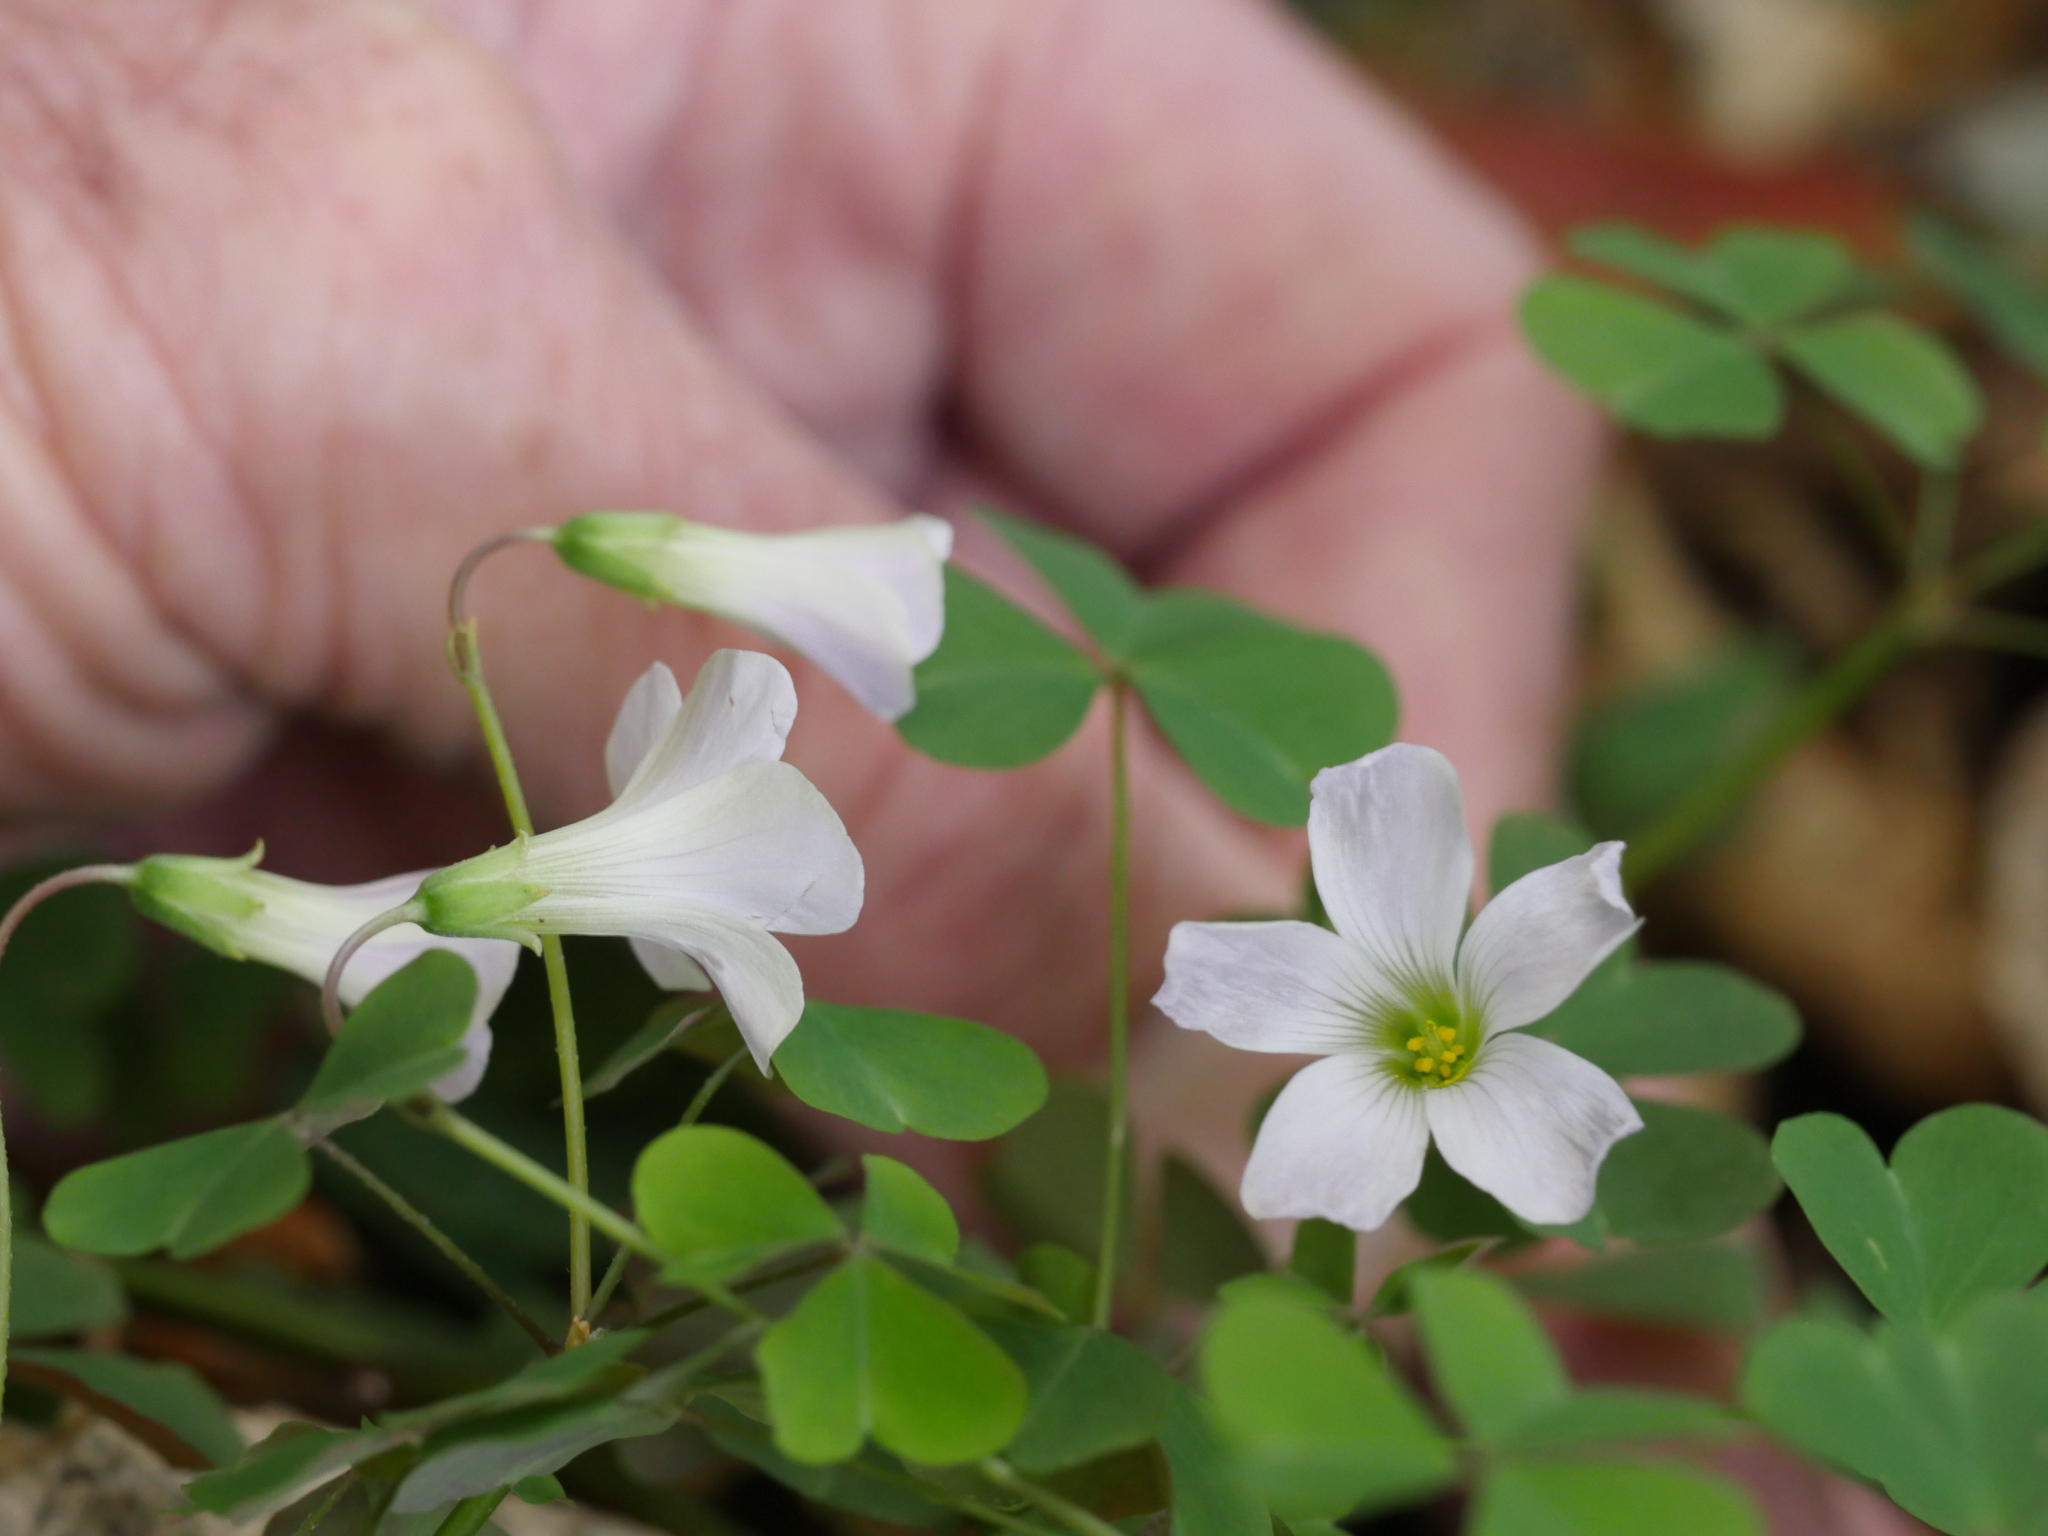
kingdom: Plantae
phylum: Tracheophyta
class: Magnoliopsida
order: Oxalidales
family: Oxalidaceae
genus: Oxalis
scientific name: Oxalis incarnata
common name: Pale pink-sorrel
